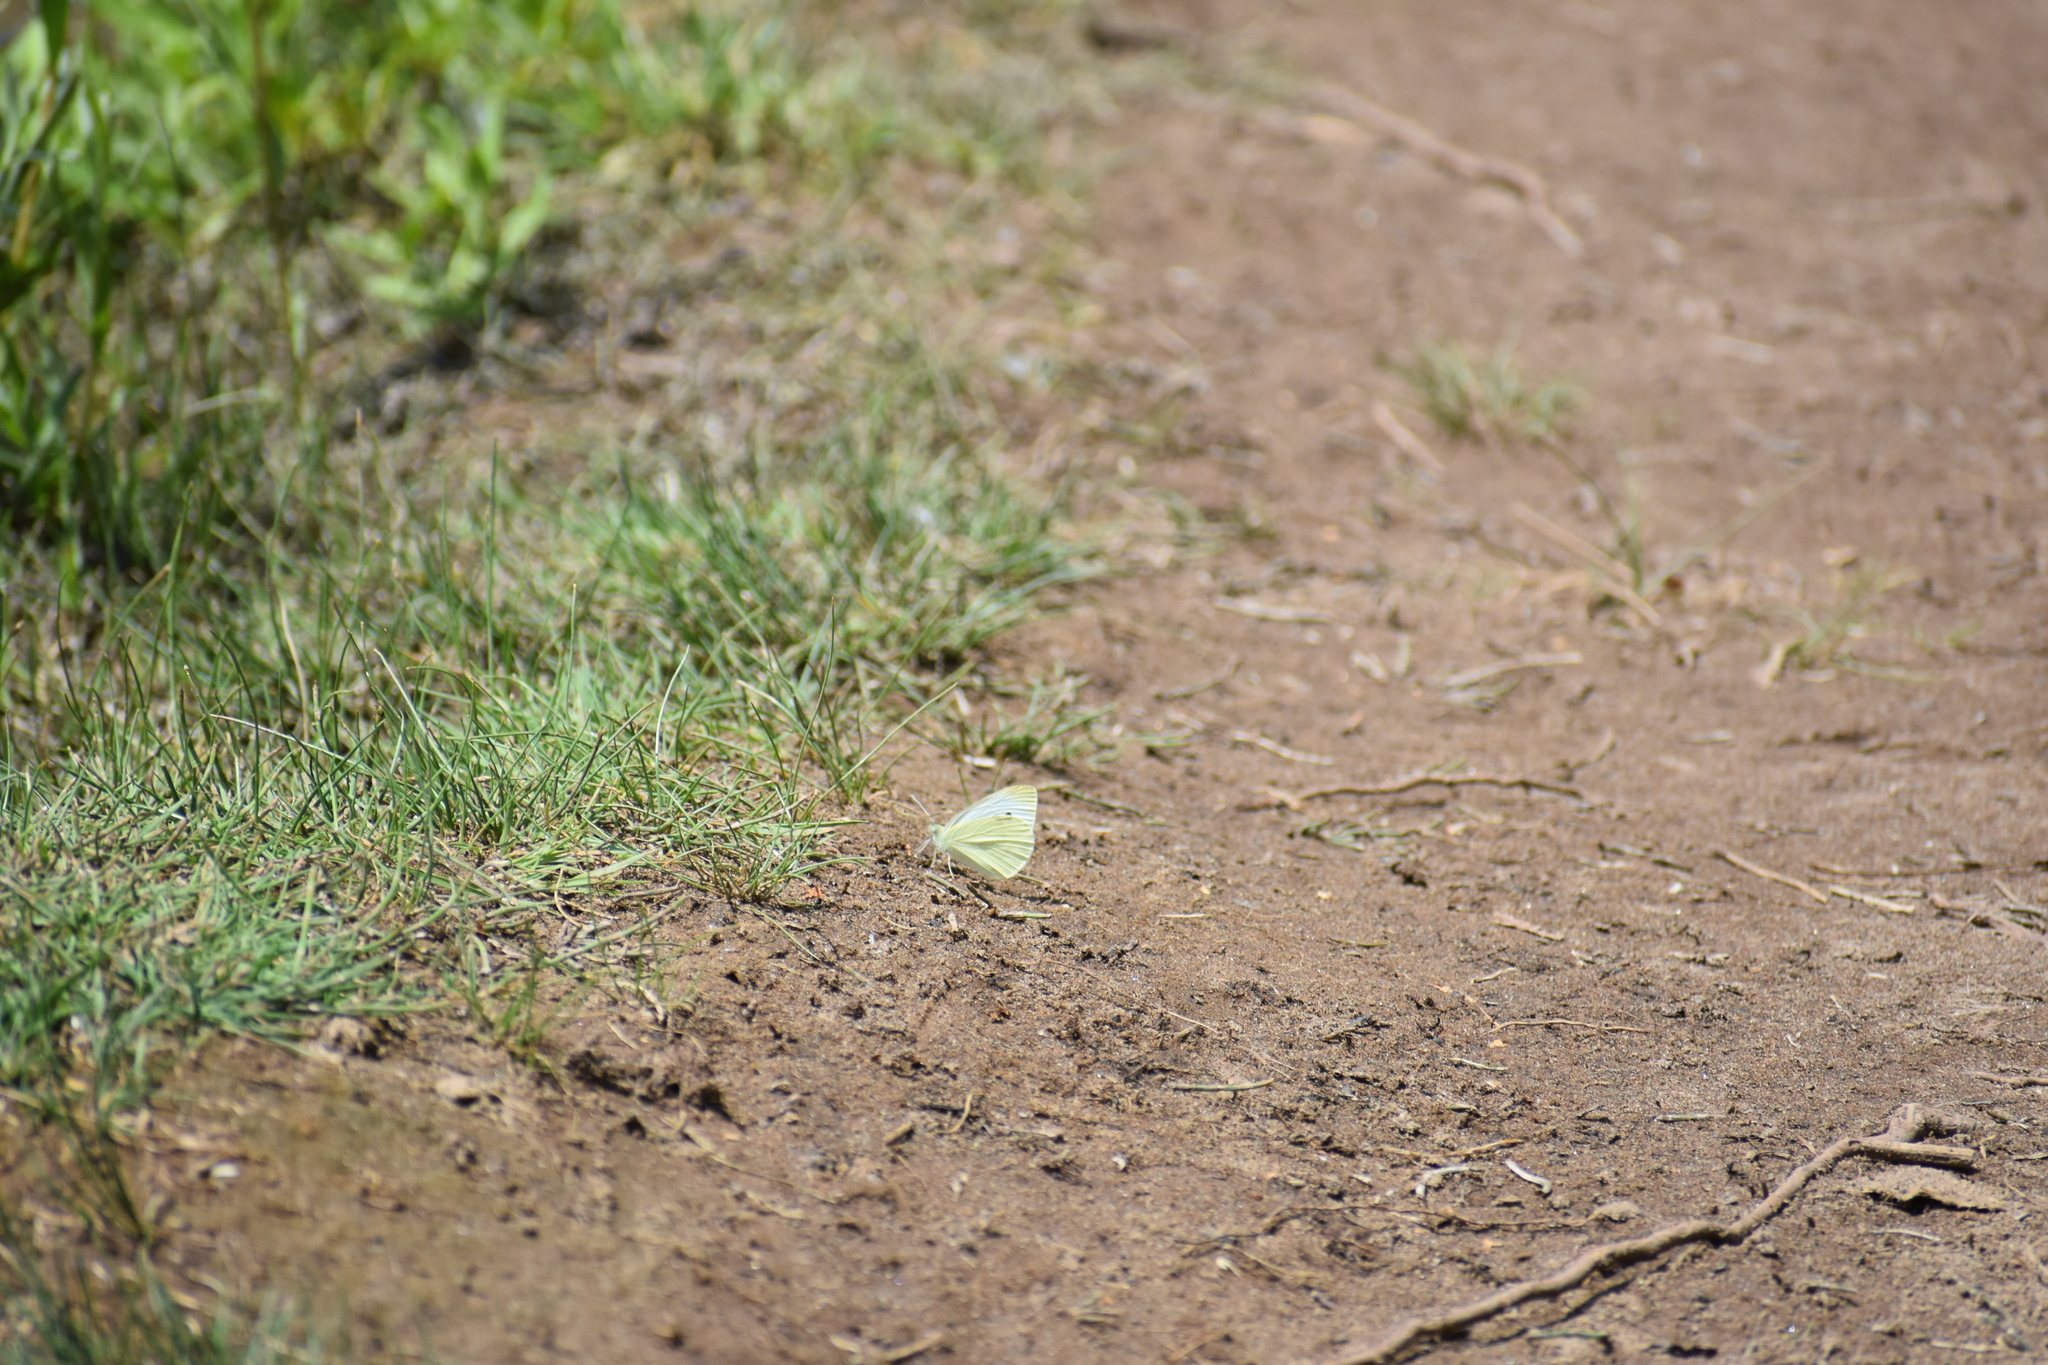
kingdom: Animalia
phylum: Arthropoda
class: Insecta
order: Lepidoptera
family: Pieridae
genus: Pieris
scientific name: Pieris rapae
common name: Small white
